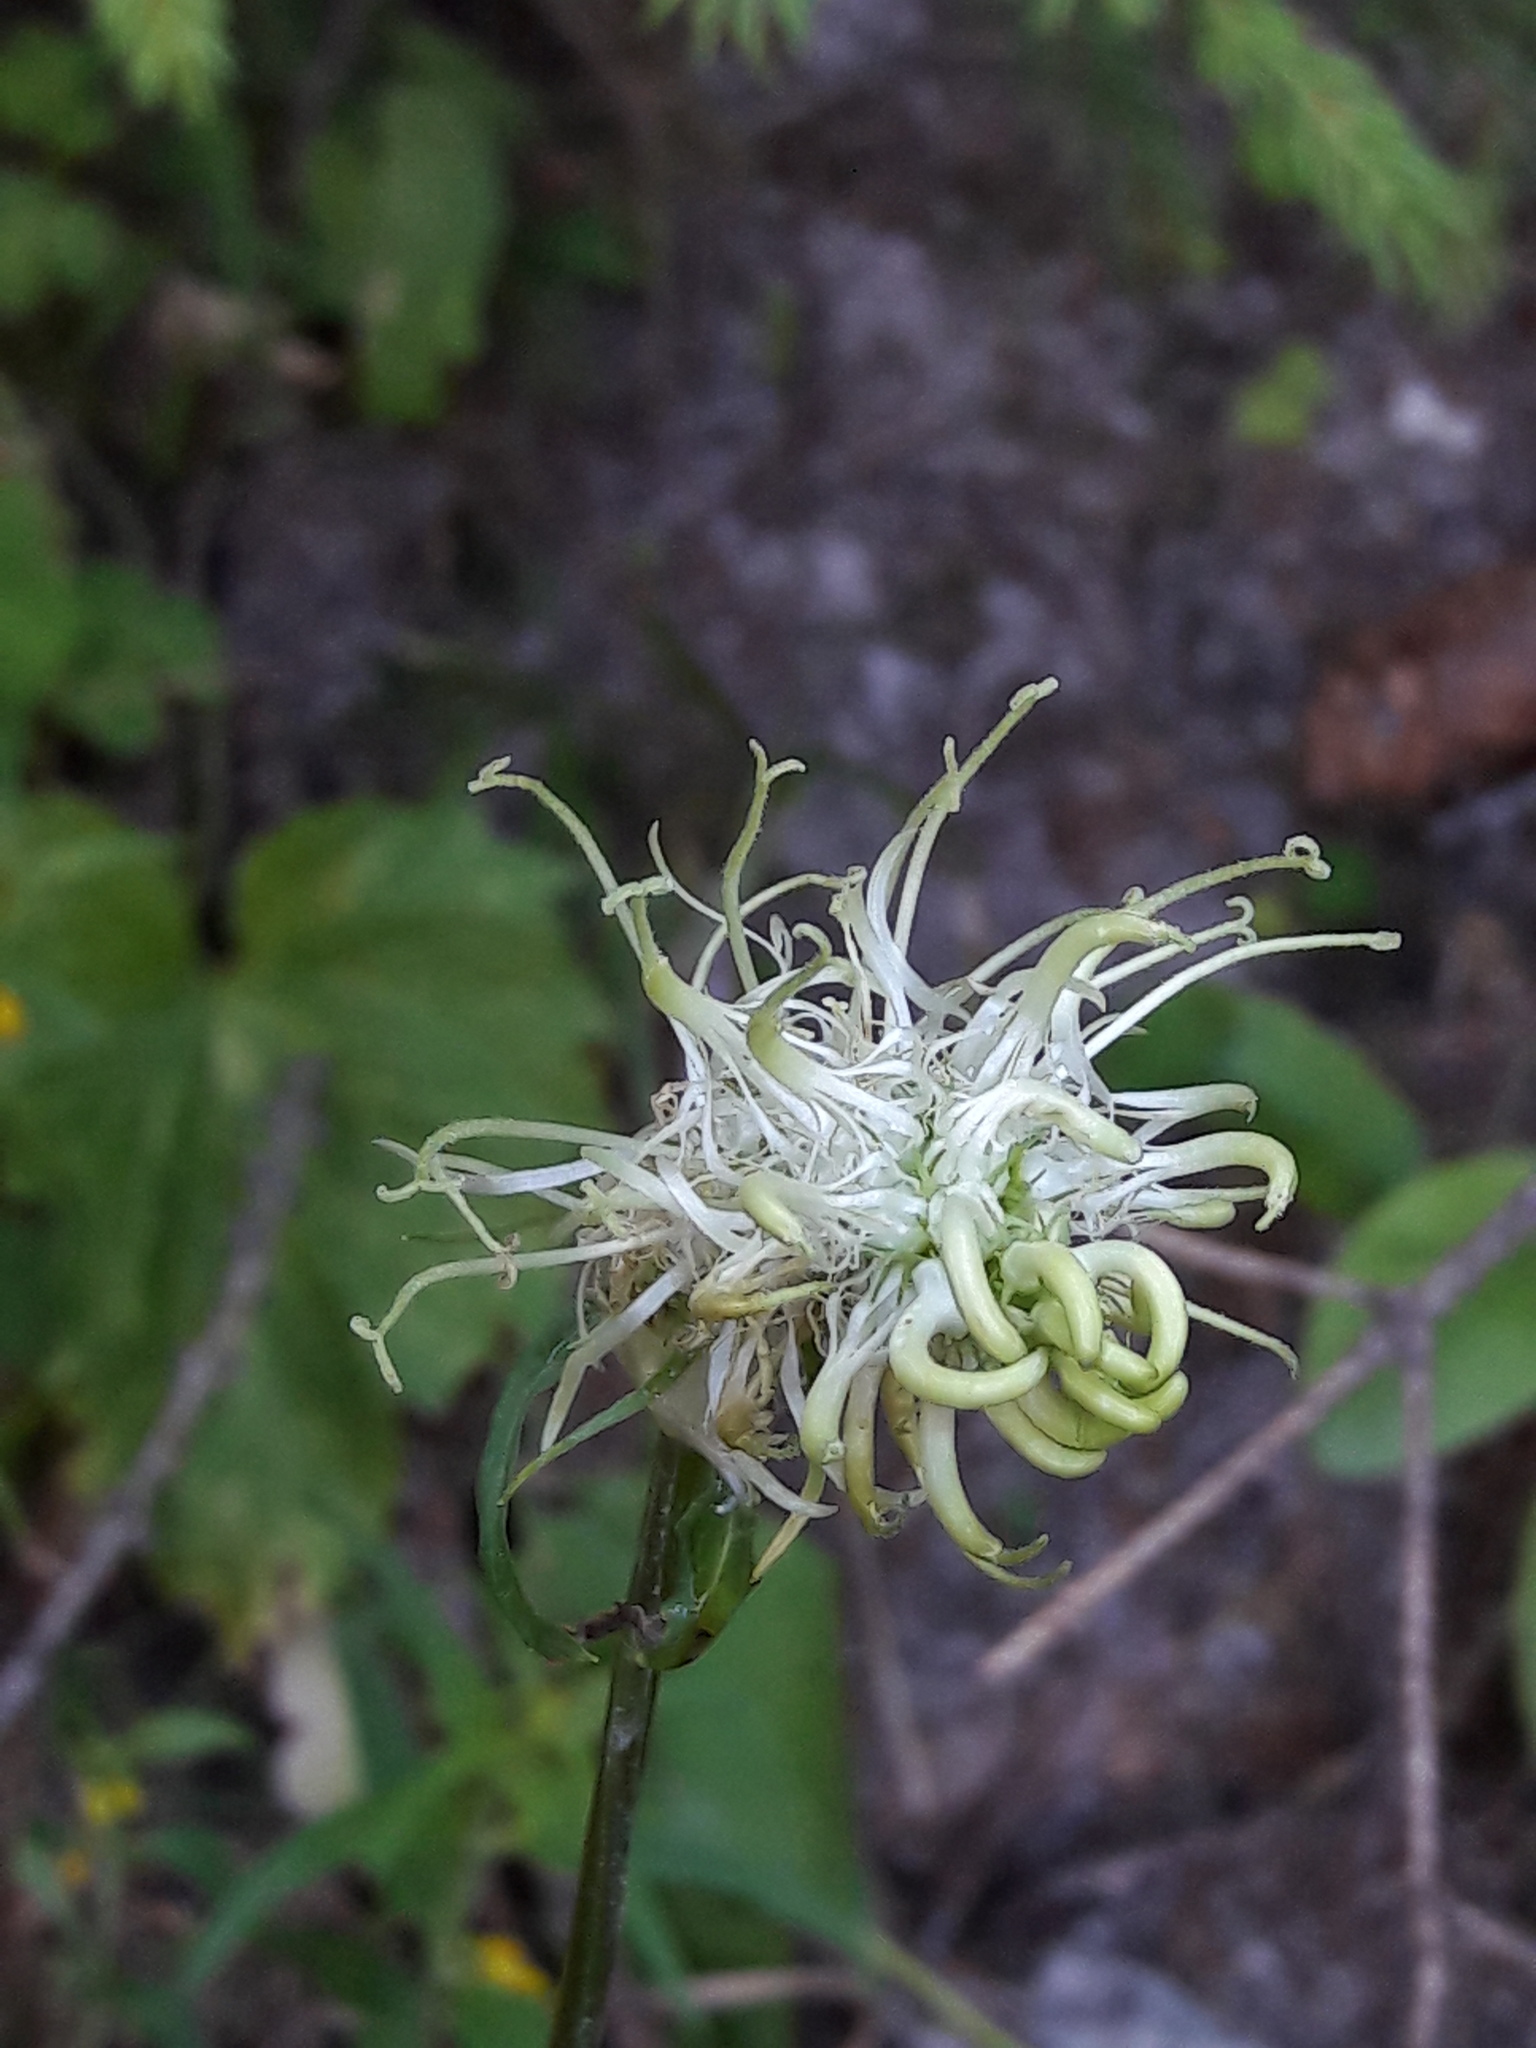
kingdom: Plantae
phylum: Tracheophyta
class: Magnoliopsida
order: Asterales
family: Campanulaceae
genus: Phyteuma
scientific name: Phyteuma spicatum
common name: Spiked rampion
